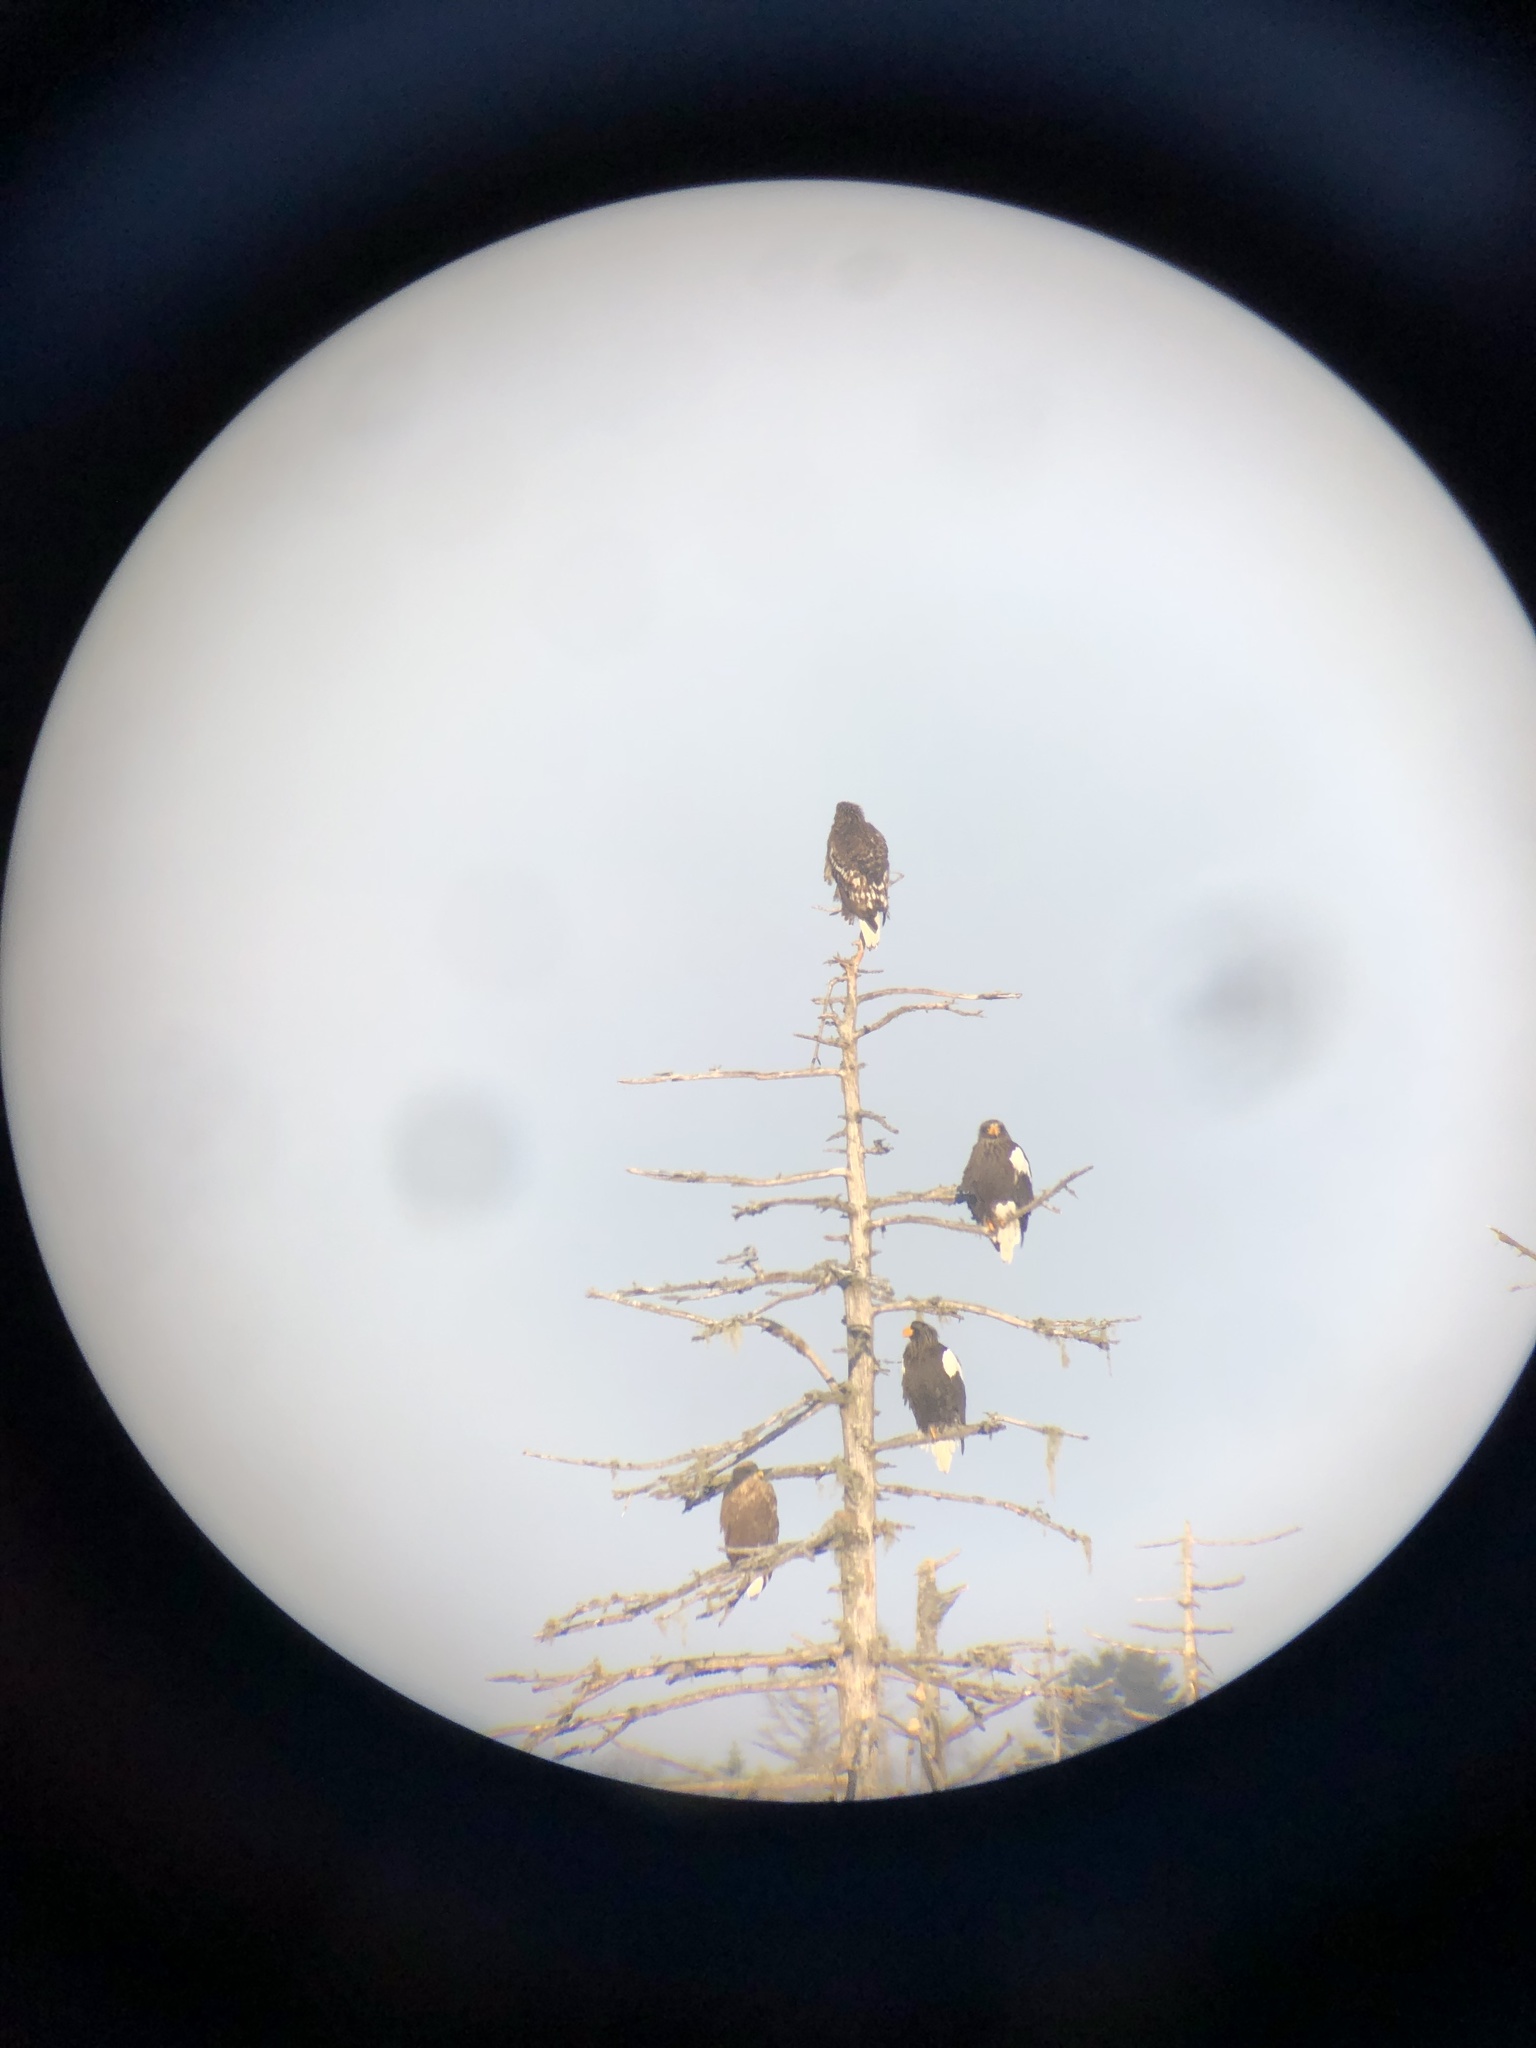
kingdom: Animalia
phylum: Chordata
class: Aves
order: Accipitriformes
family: Accipitridae
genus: Haliaeetus
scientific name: Haliaeetus albicilla
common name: White-tailed eagle
